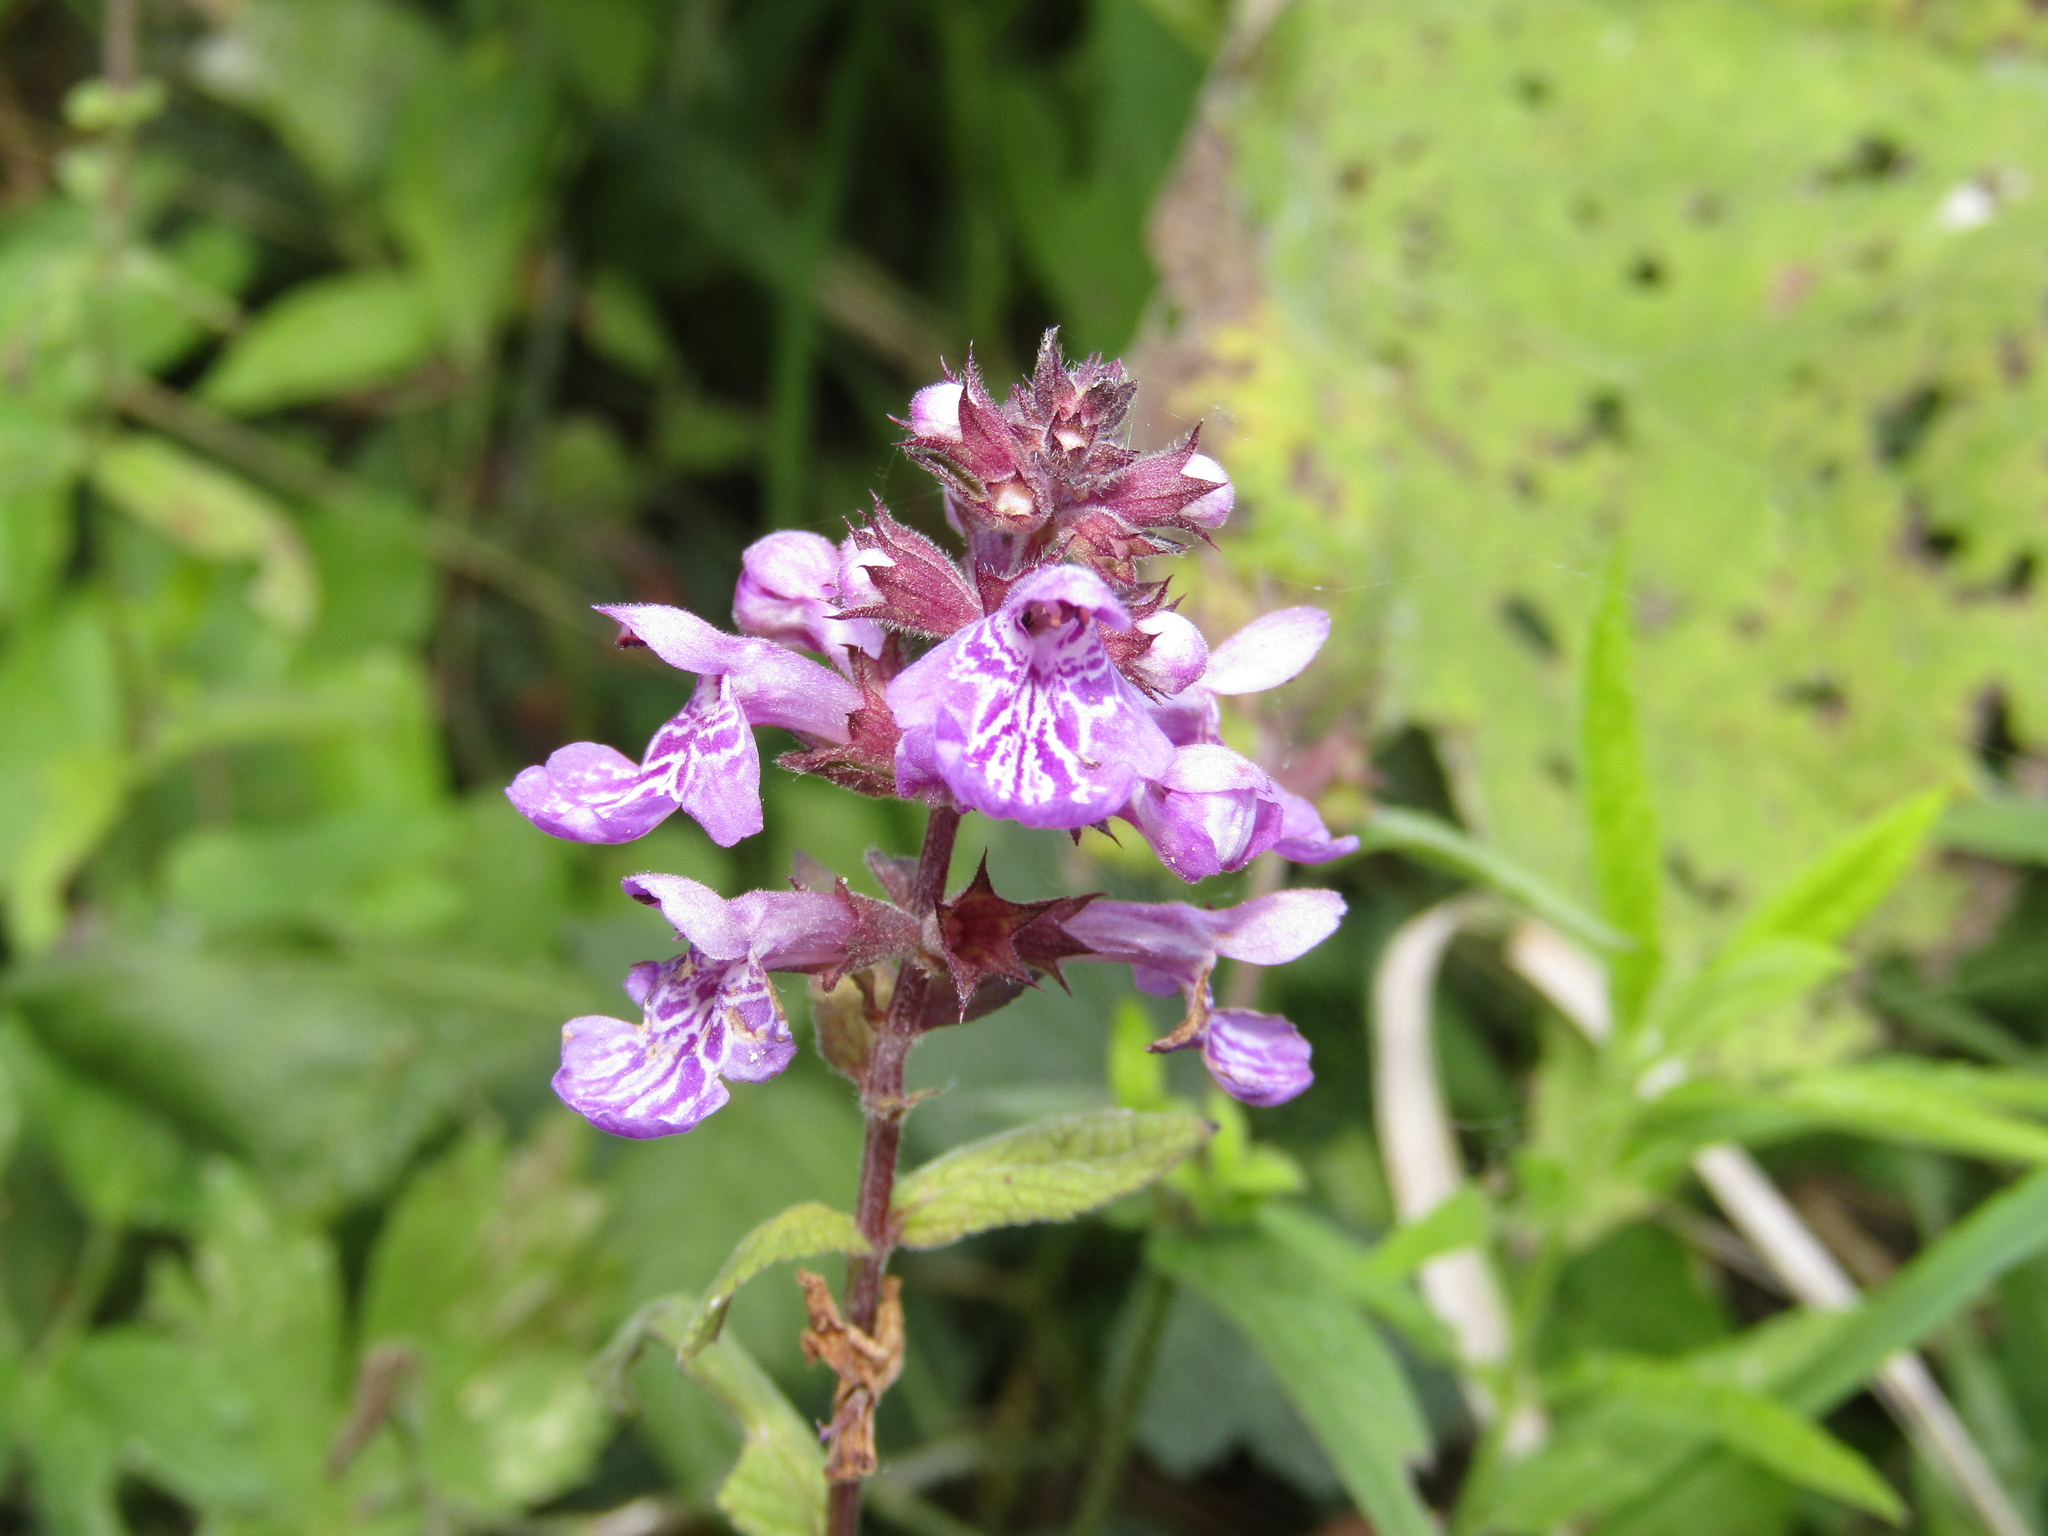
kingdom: Plantae
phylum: Tracheophyta
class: Magnoliopsida
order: Lamiales
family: Lamiaceae
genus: Stachys
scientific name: Stachys palustris
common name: Marsh woundwort
